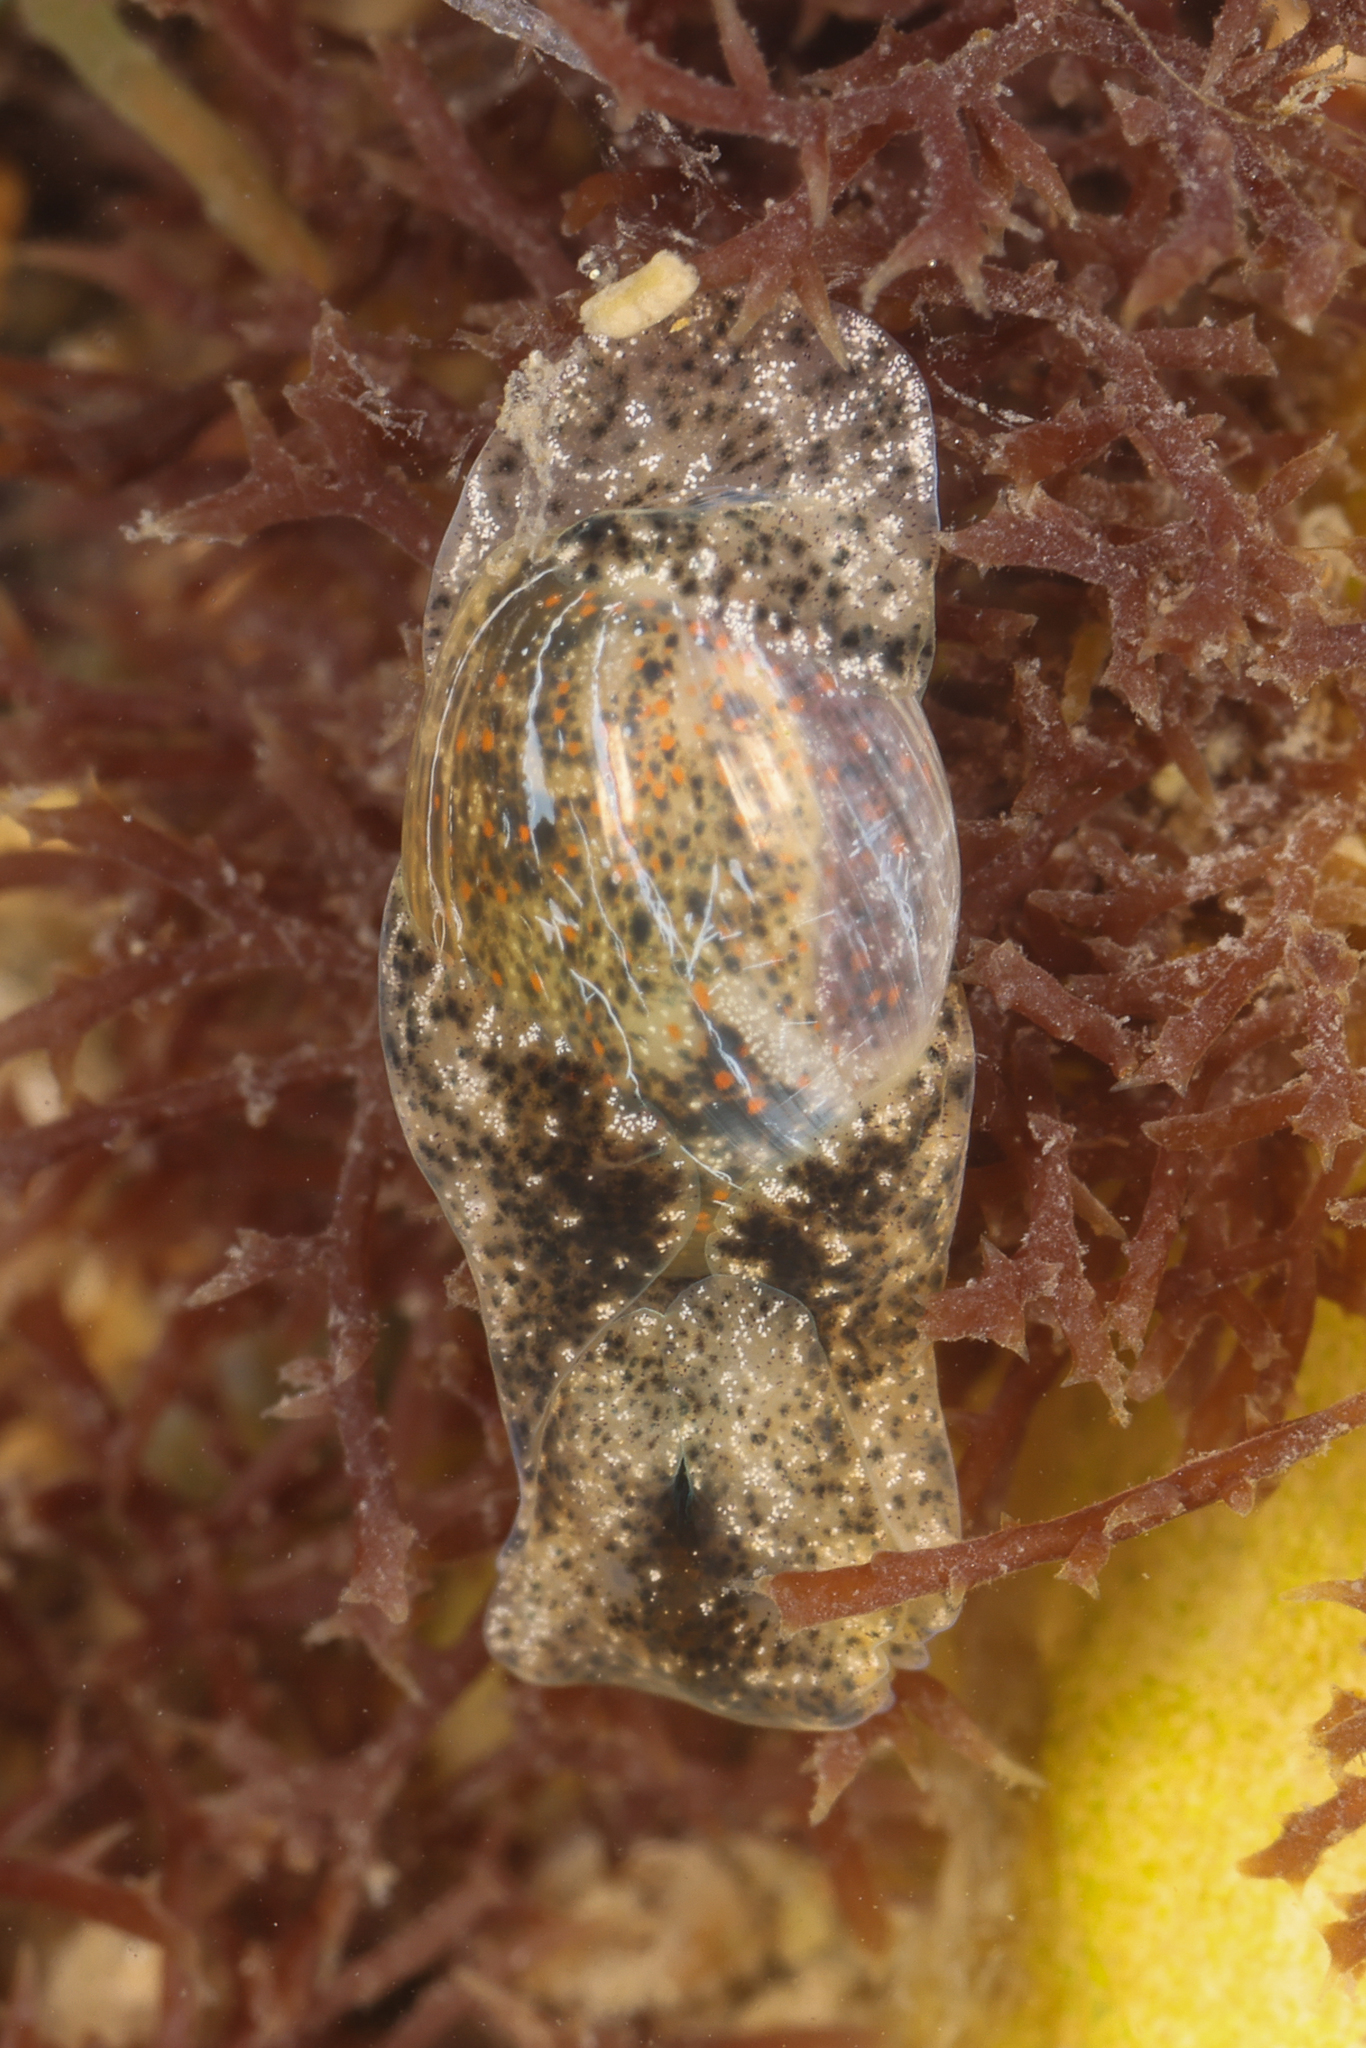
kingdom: Animalia
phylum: Mollusca
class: Gastropoda
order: Cephalaspidea
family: Haminoeidae
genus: Haloa
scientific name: Haloa japonica
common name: Japanese bubble snail
